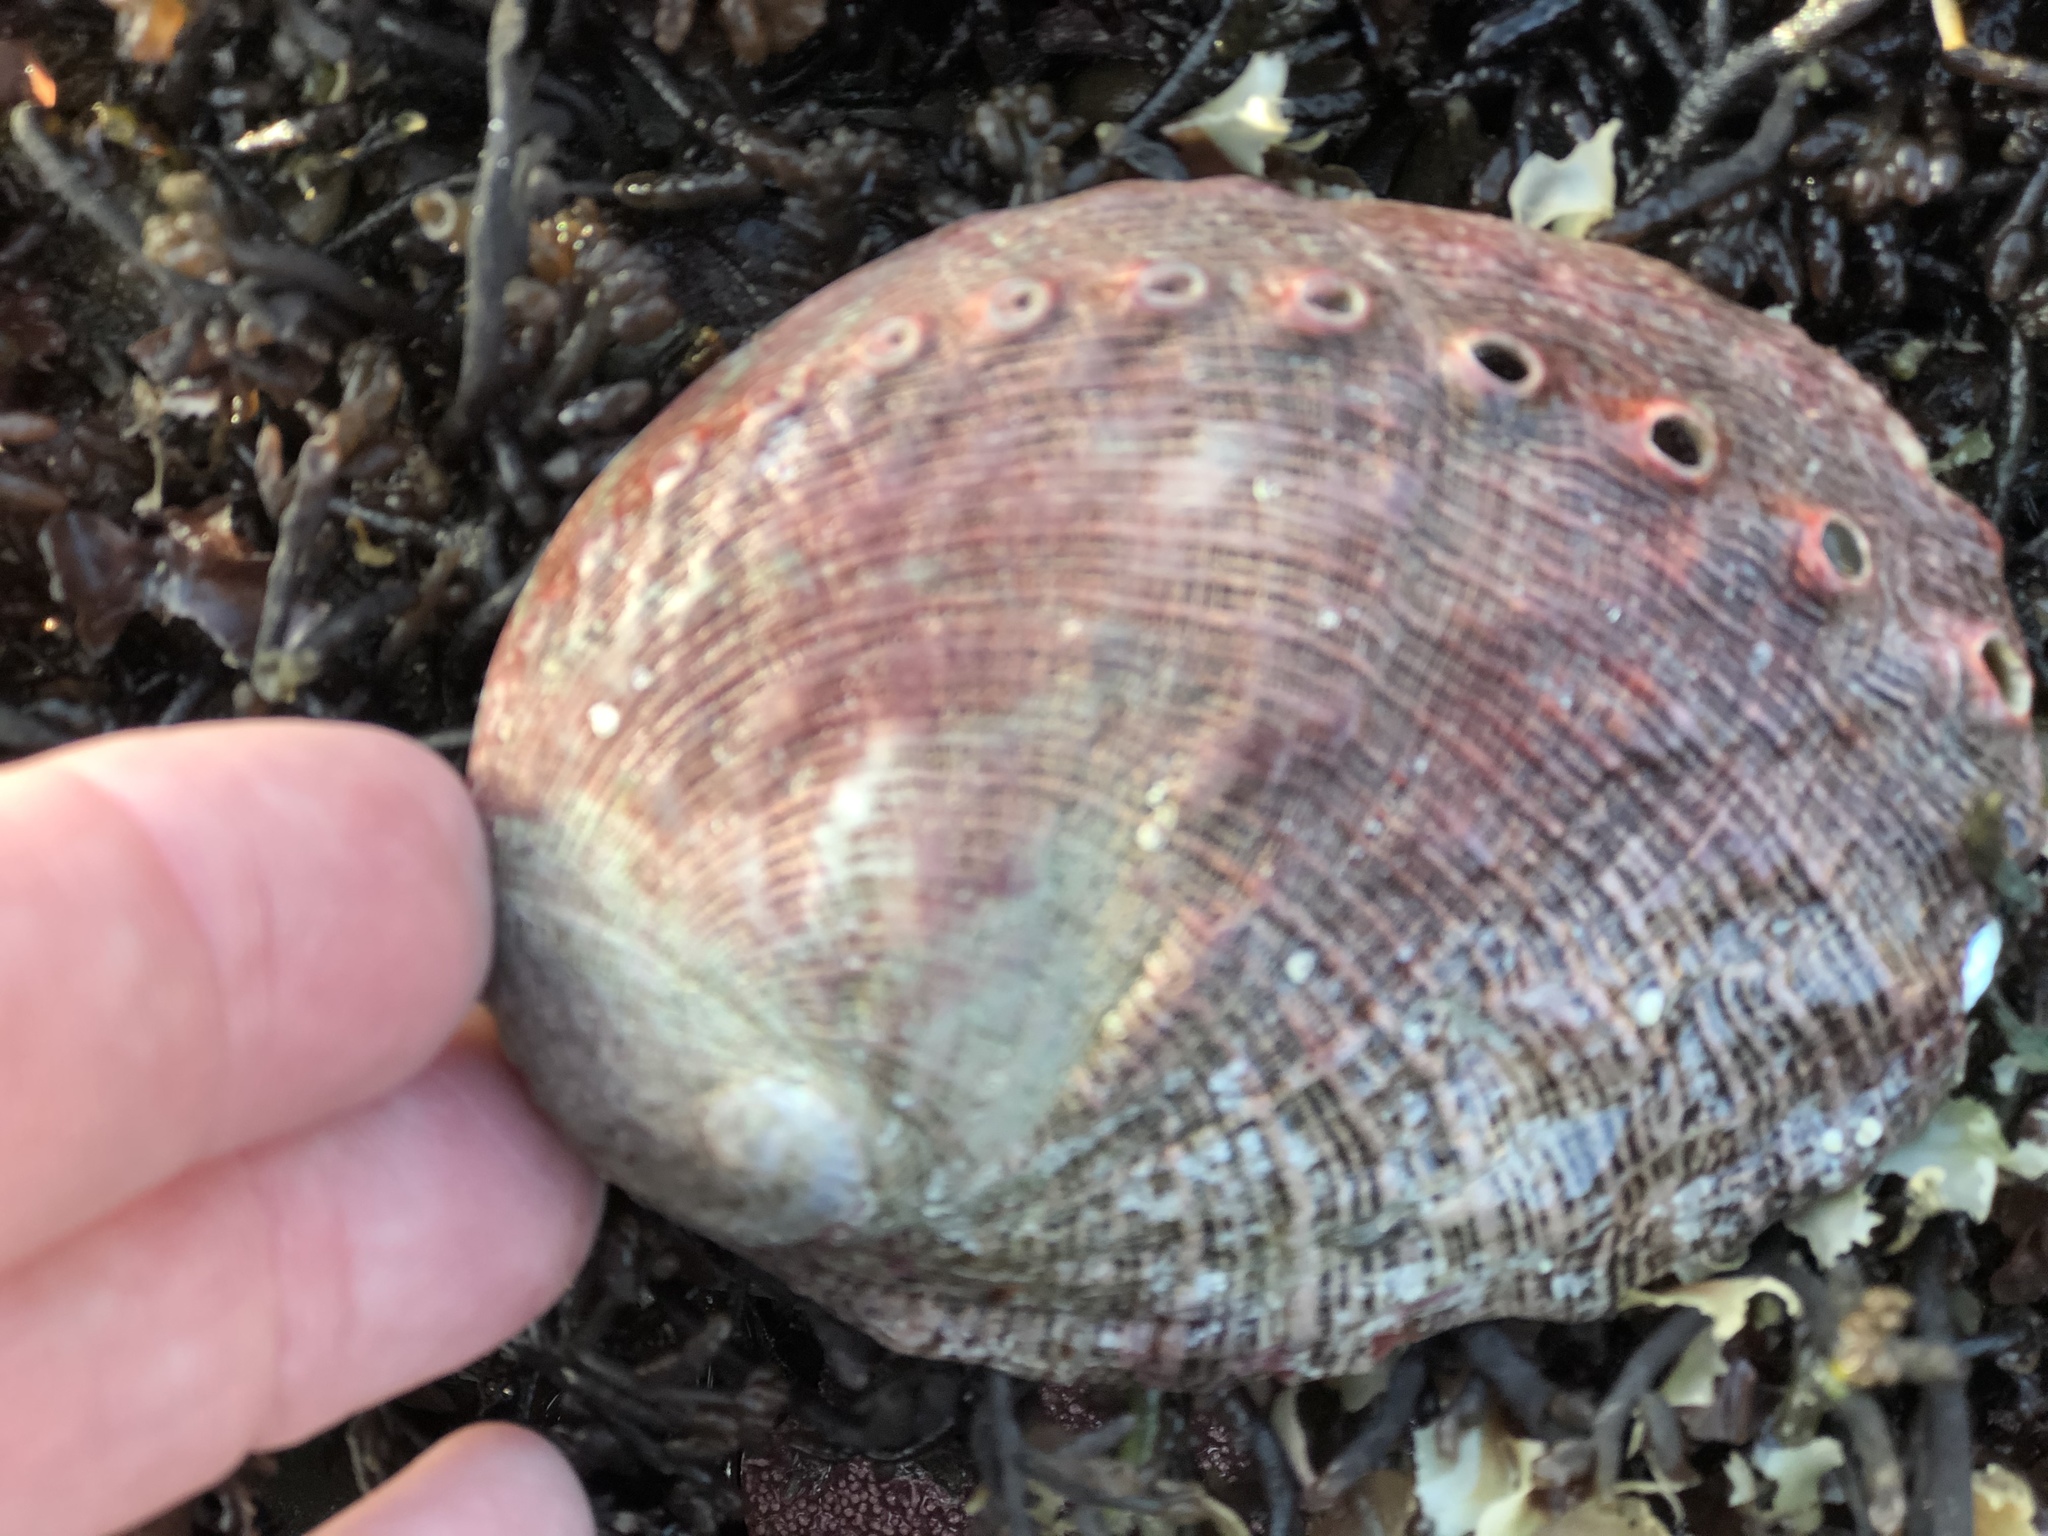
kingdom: Animalia
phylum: Mollusca
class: Gastropoda
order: Lepetellida
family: Haliotidae
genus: Haliotis
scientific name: Haliotis rufescens
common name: Red abalone
